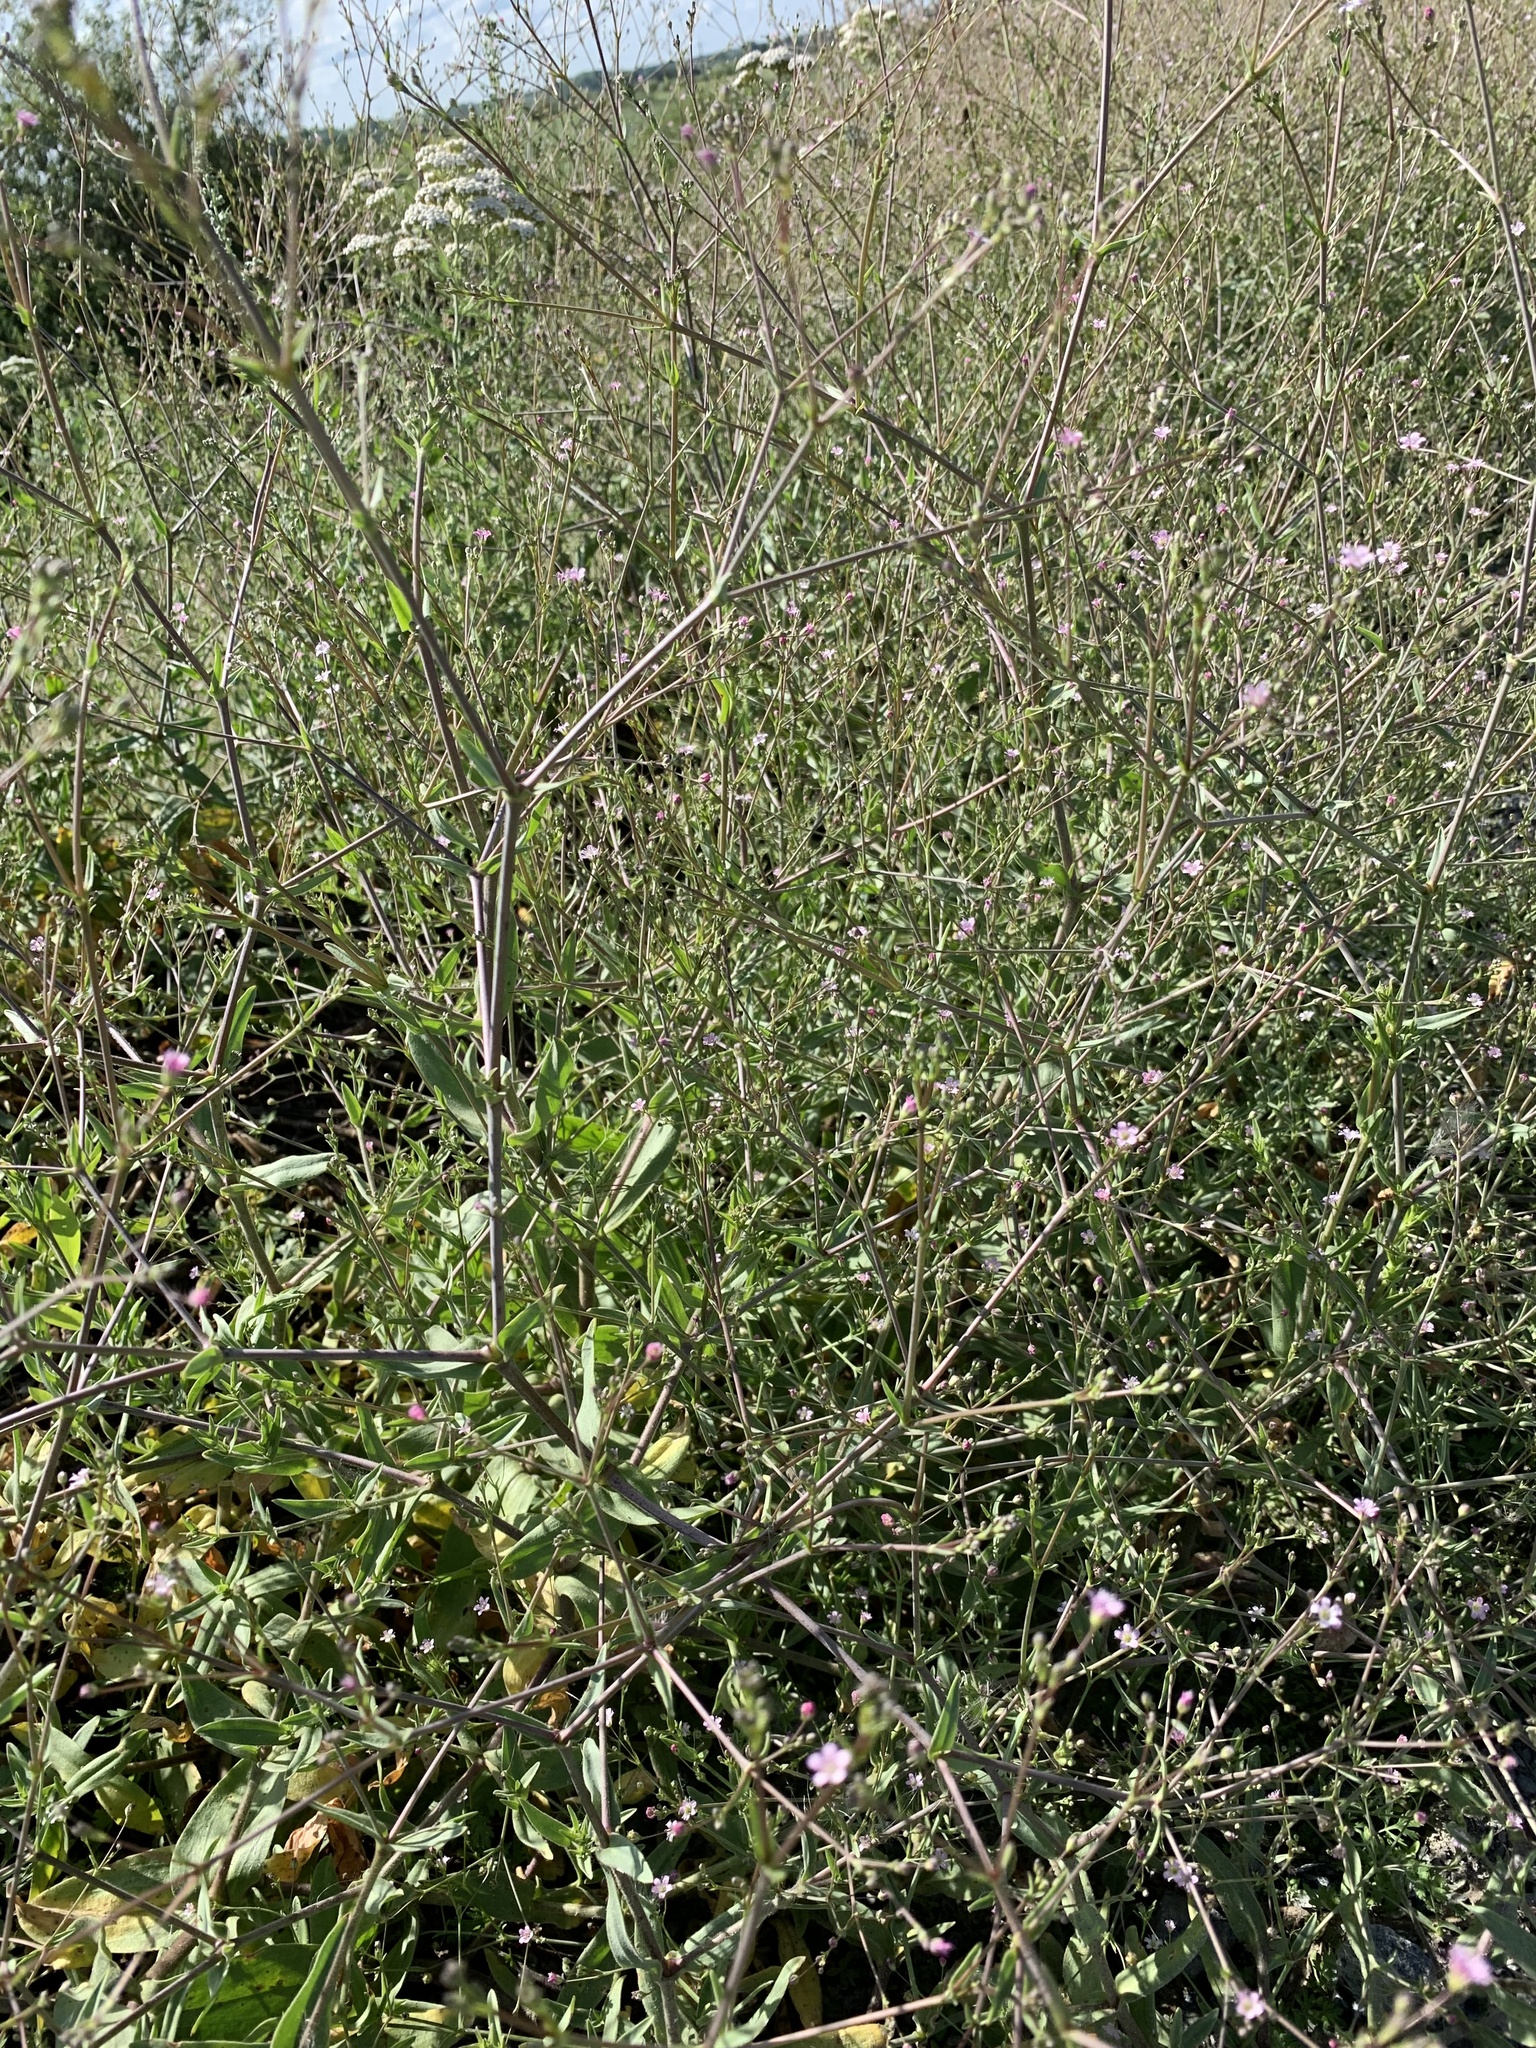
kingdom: Plantae
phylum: Tracheophyta
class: Magnoliopsida
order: Caryophyllales
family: Caryophyllaceae
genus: Gypsophila
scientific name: Gypsophila perfoliata
